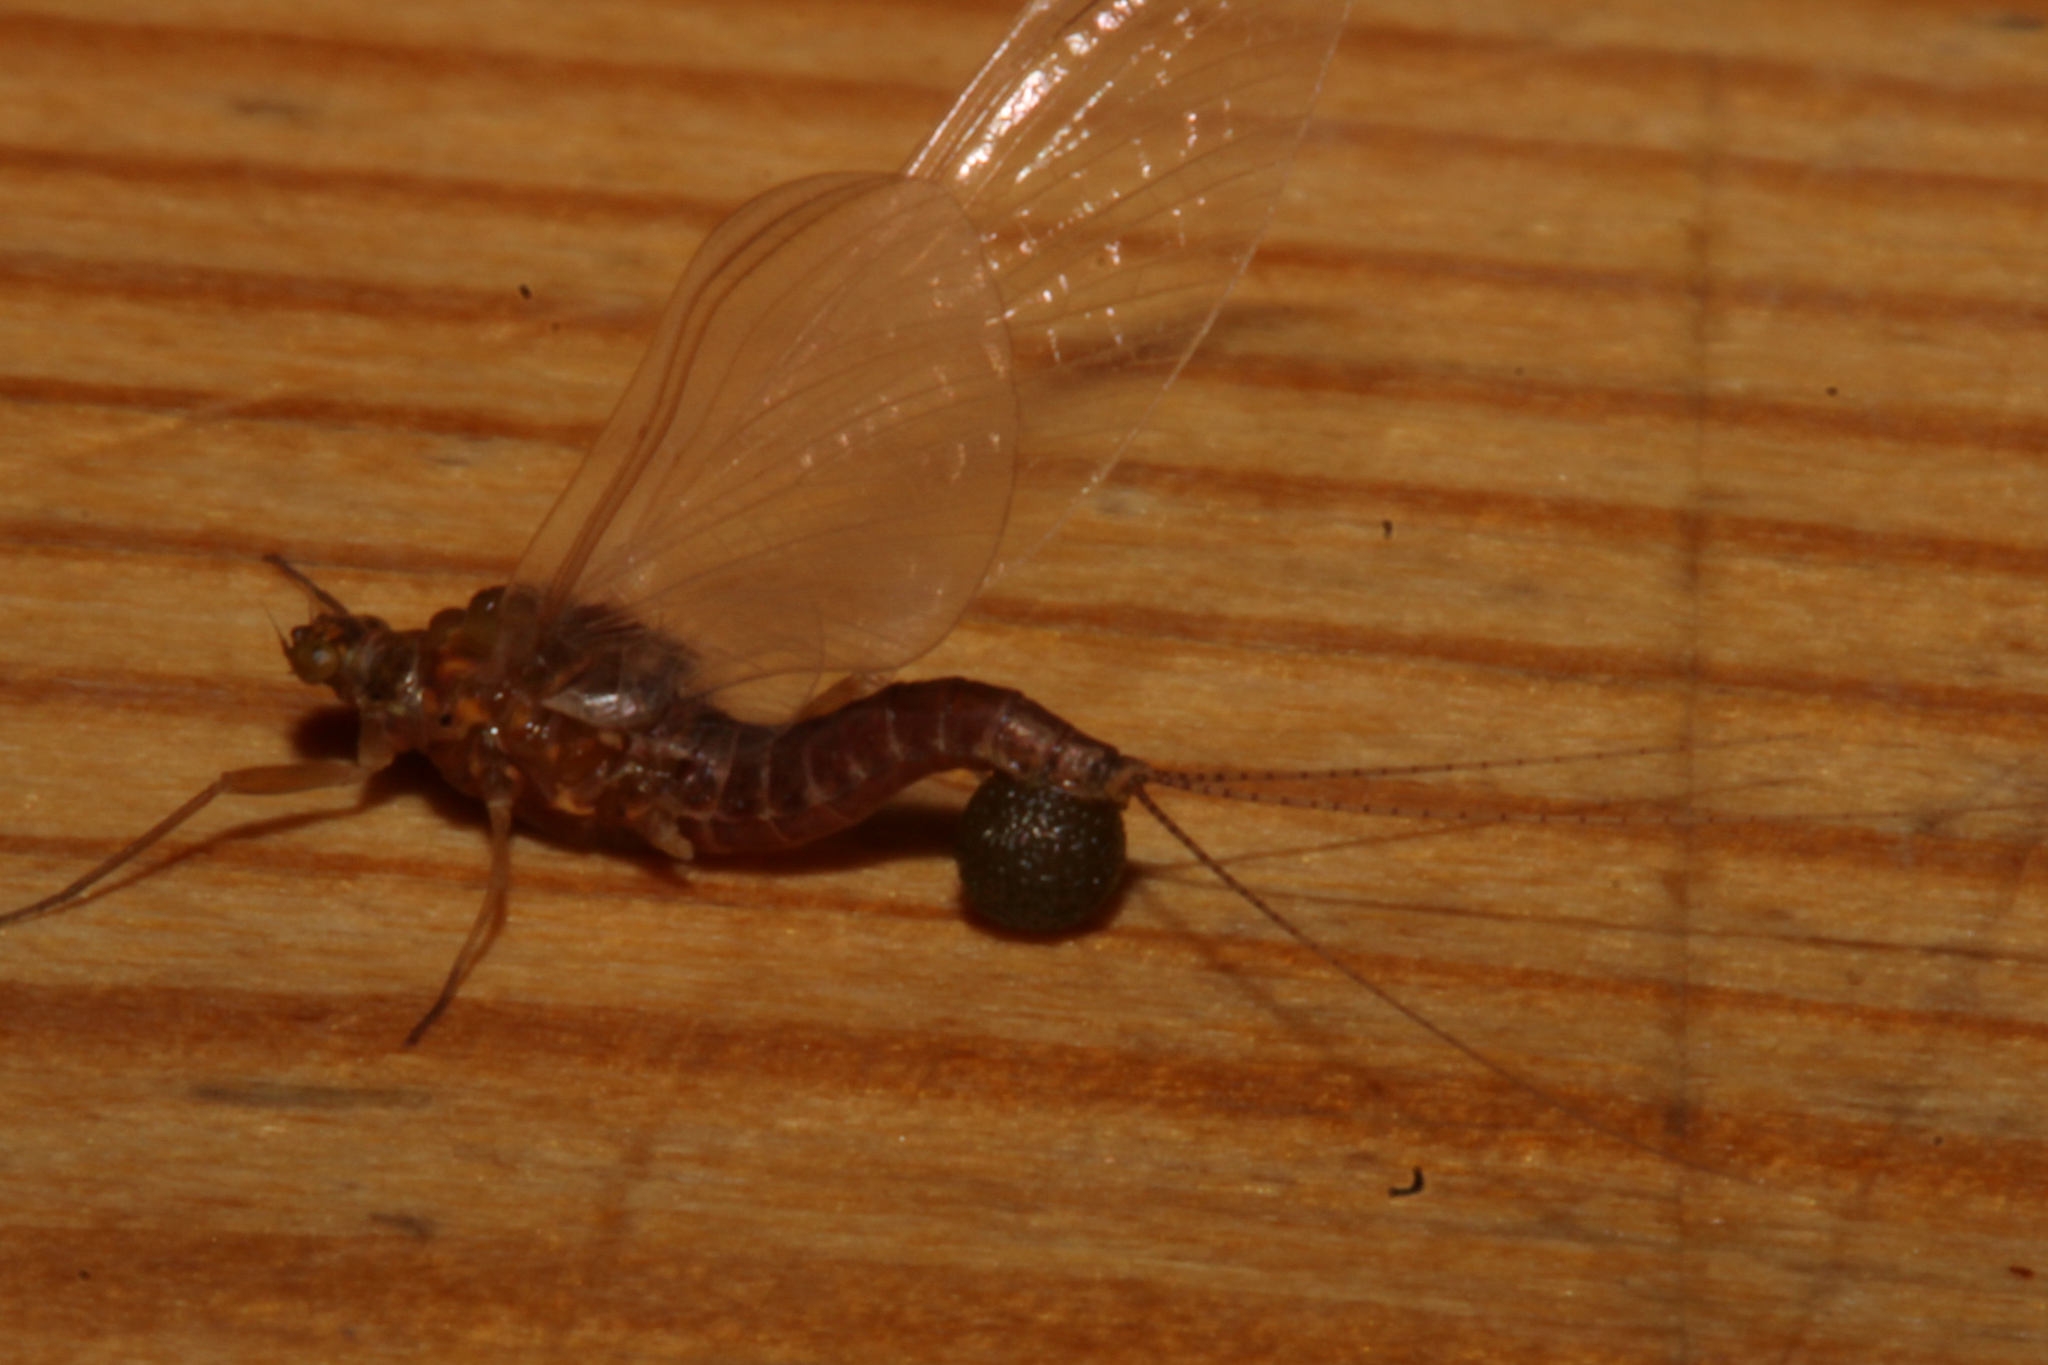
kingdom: Animalia
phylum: Arthropoda
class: Insecta
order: Ephemeroptera
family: Ephemerellidae
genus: Ephemerella
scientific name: Ephemerella
